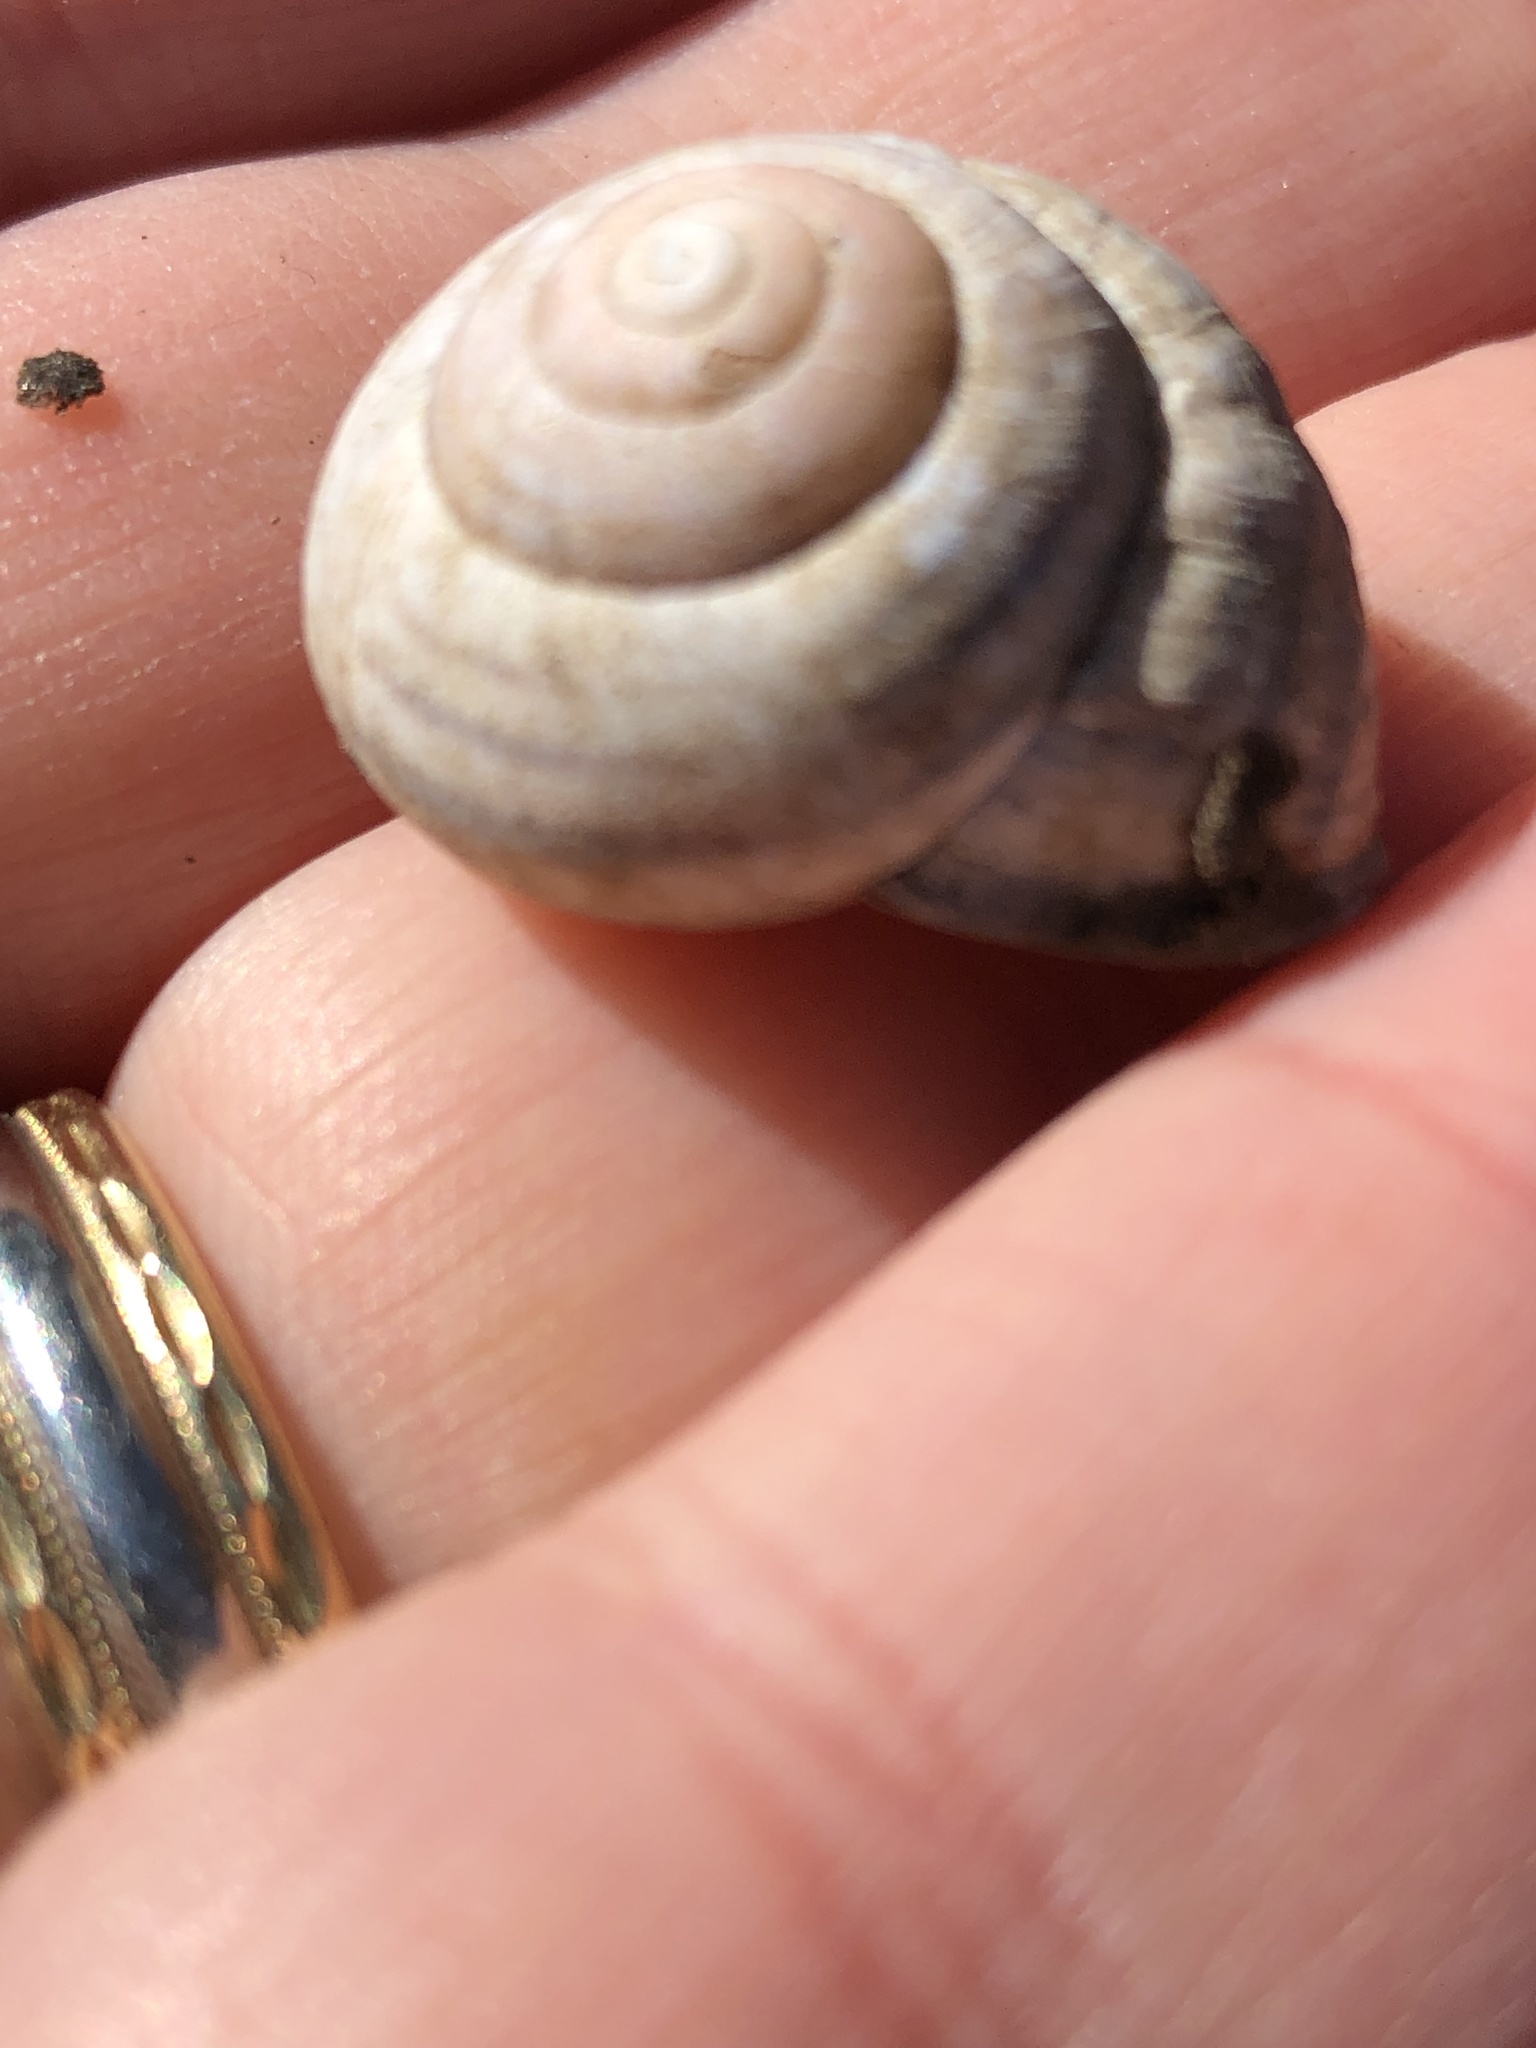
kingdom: Animalia
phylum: Mollusca
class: Gastropoda
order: Stylommatophora
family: Helicidae
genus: Cepaea
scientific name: Cepaea nemoralis
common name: Grovesnail
